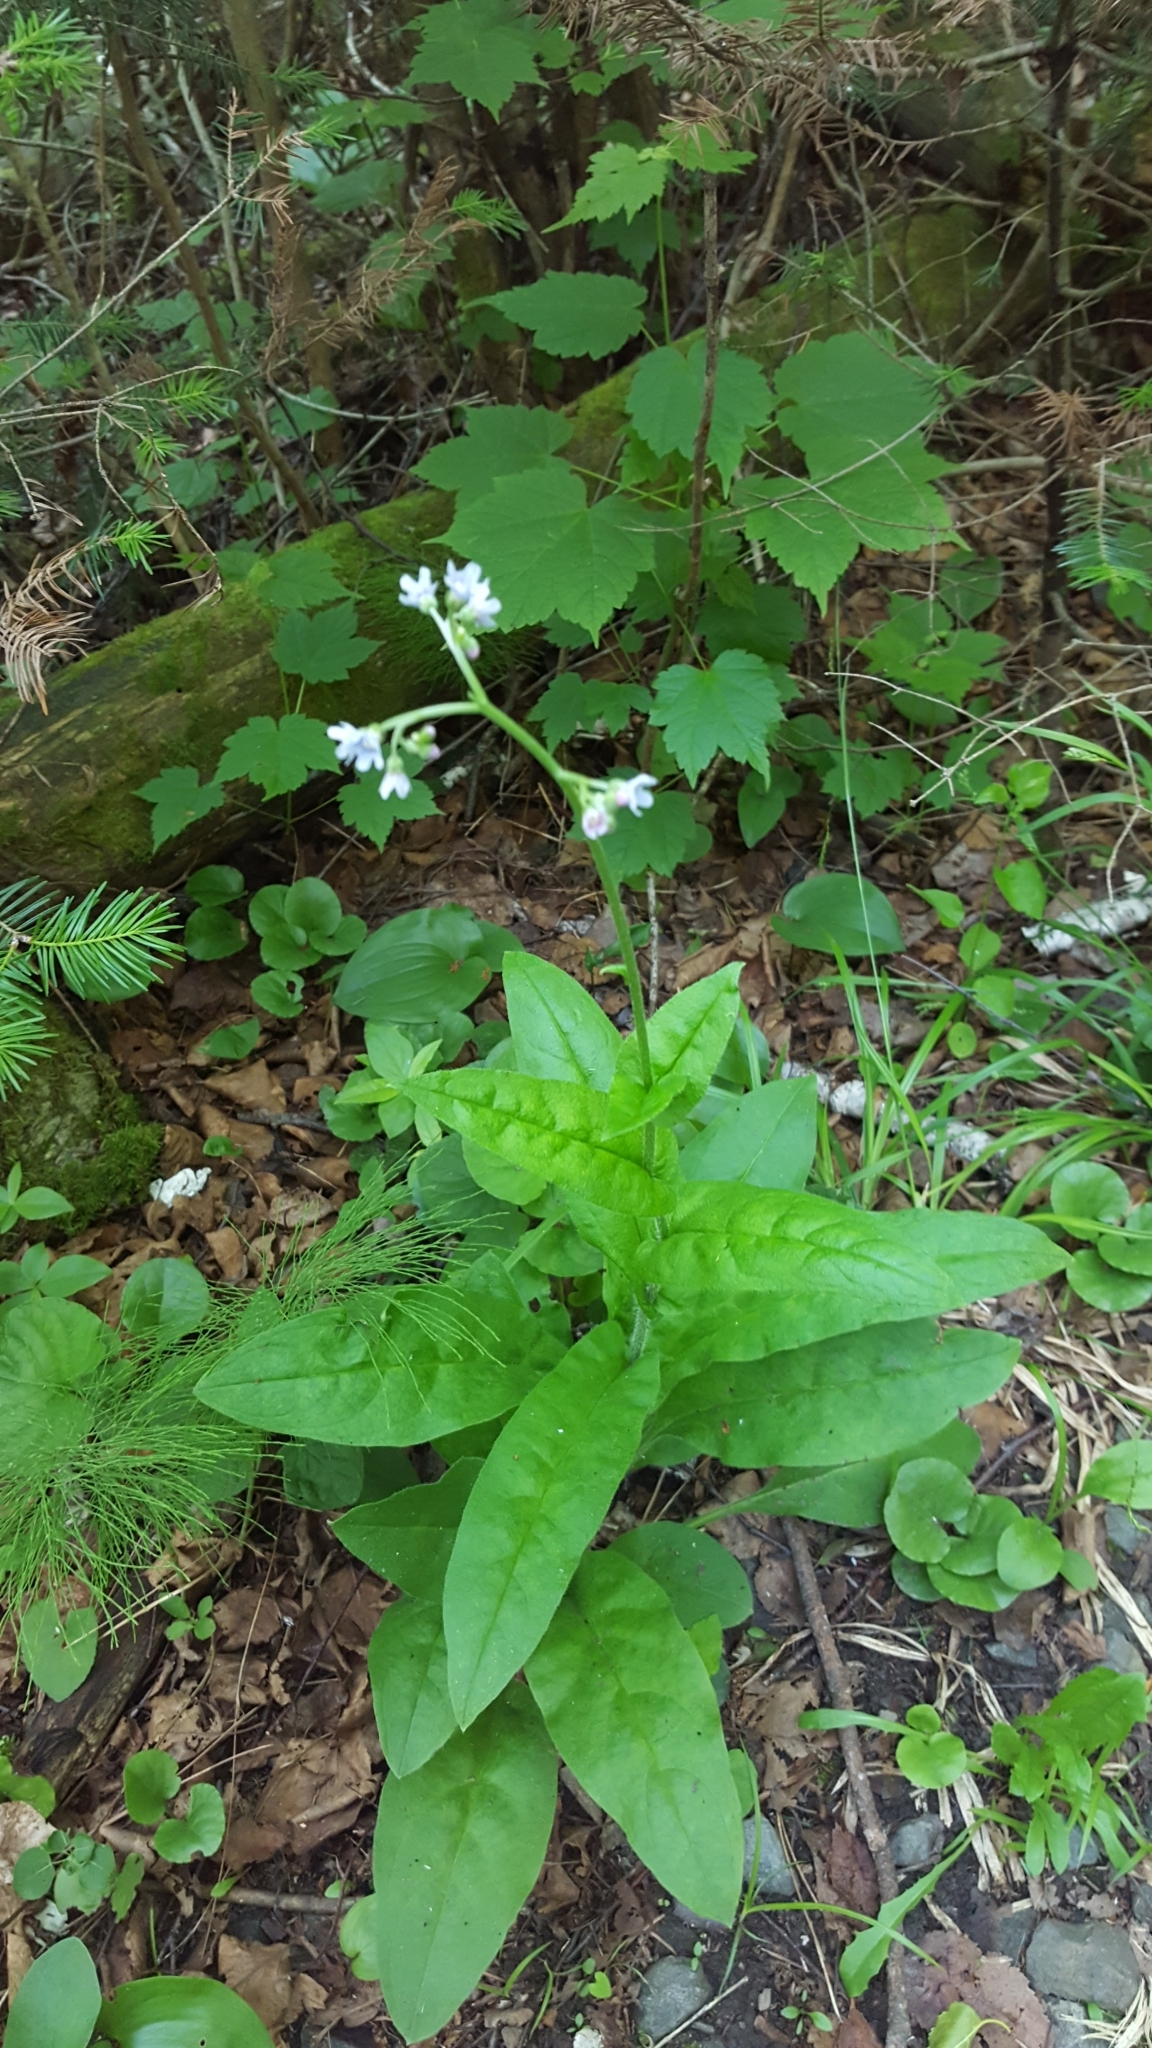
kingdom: Plantae
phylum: Tracheophyta
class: Magnoliopsida
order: Boraginales
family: Boraginaceae
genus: Andersonglossum
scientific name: Andersonglossum boreale
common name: Northern hound's-tongue
